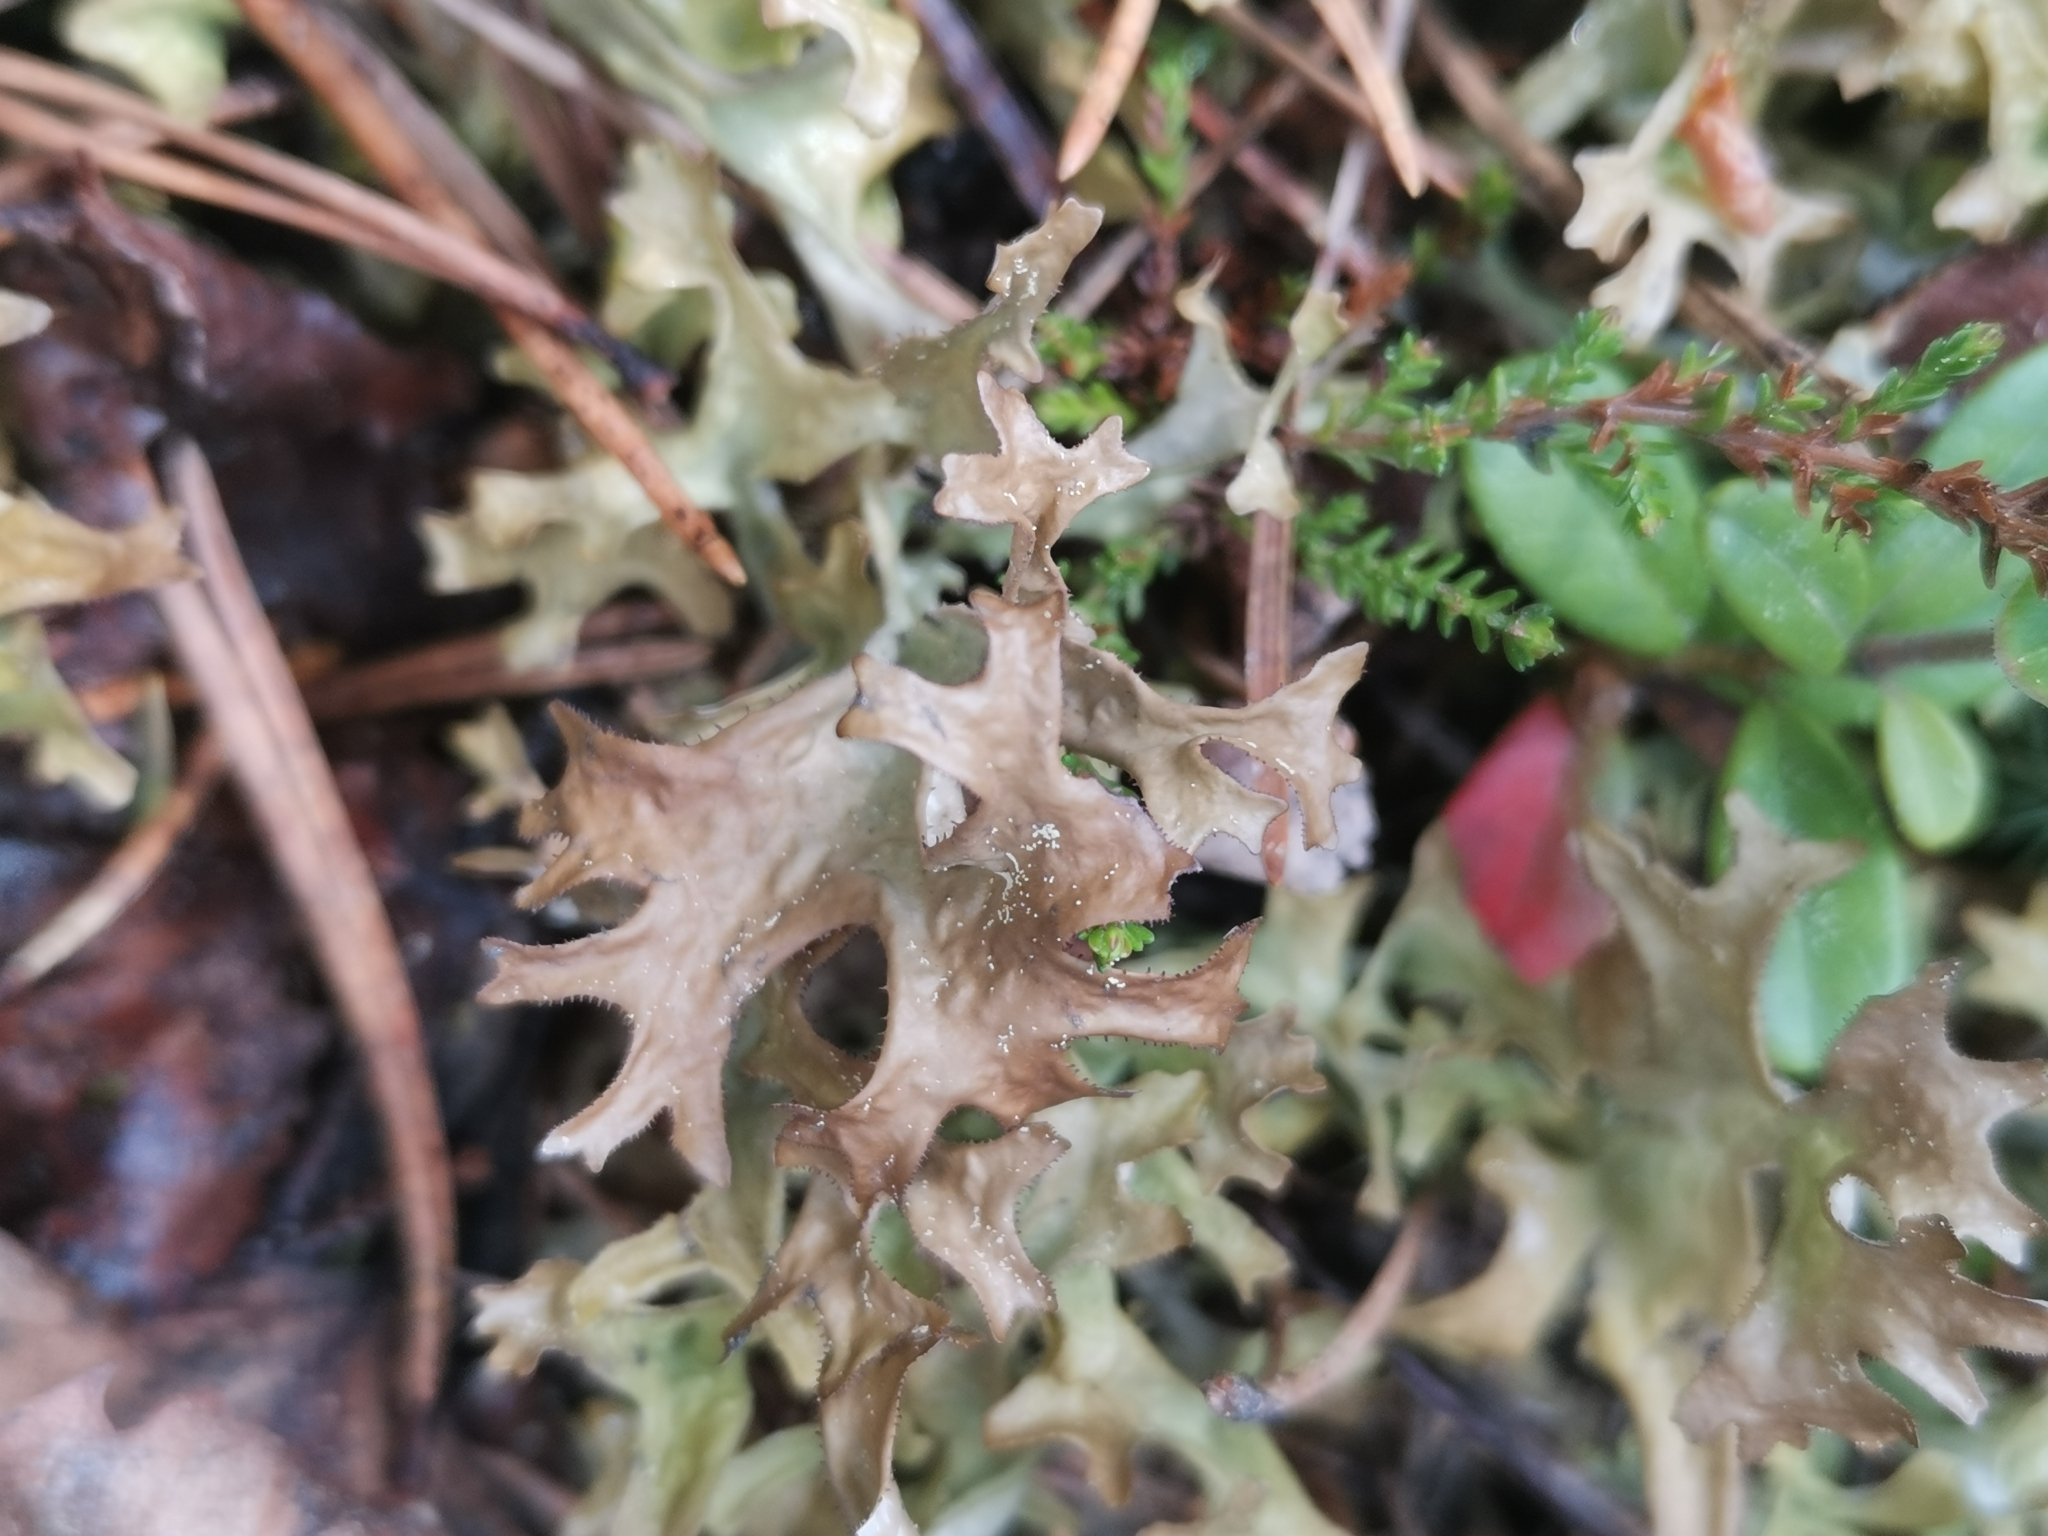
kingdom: Fungi
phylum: Ascomycota
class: Lecanoromycetes
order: Lecanorales
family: Parmeliaceae
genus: Cetraria
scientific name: Cetraria islandica
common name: Iceland lichen
